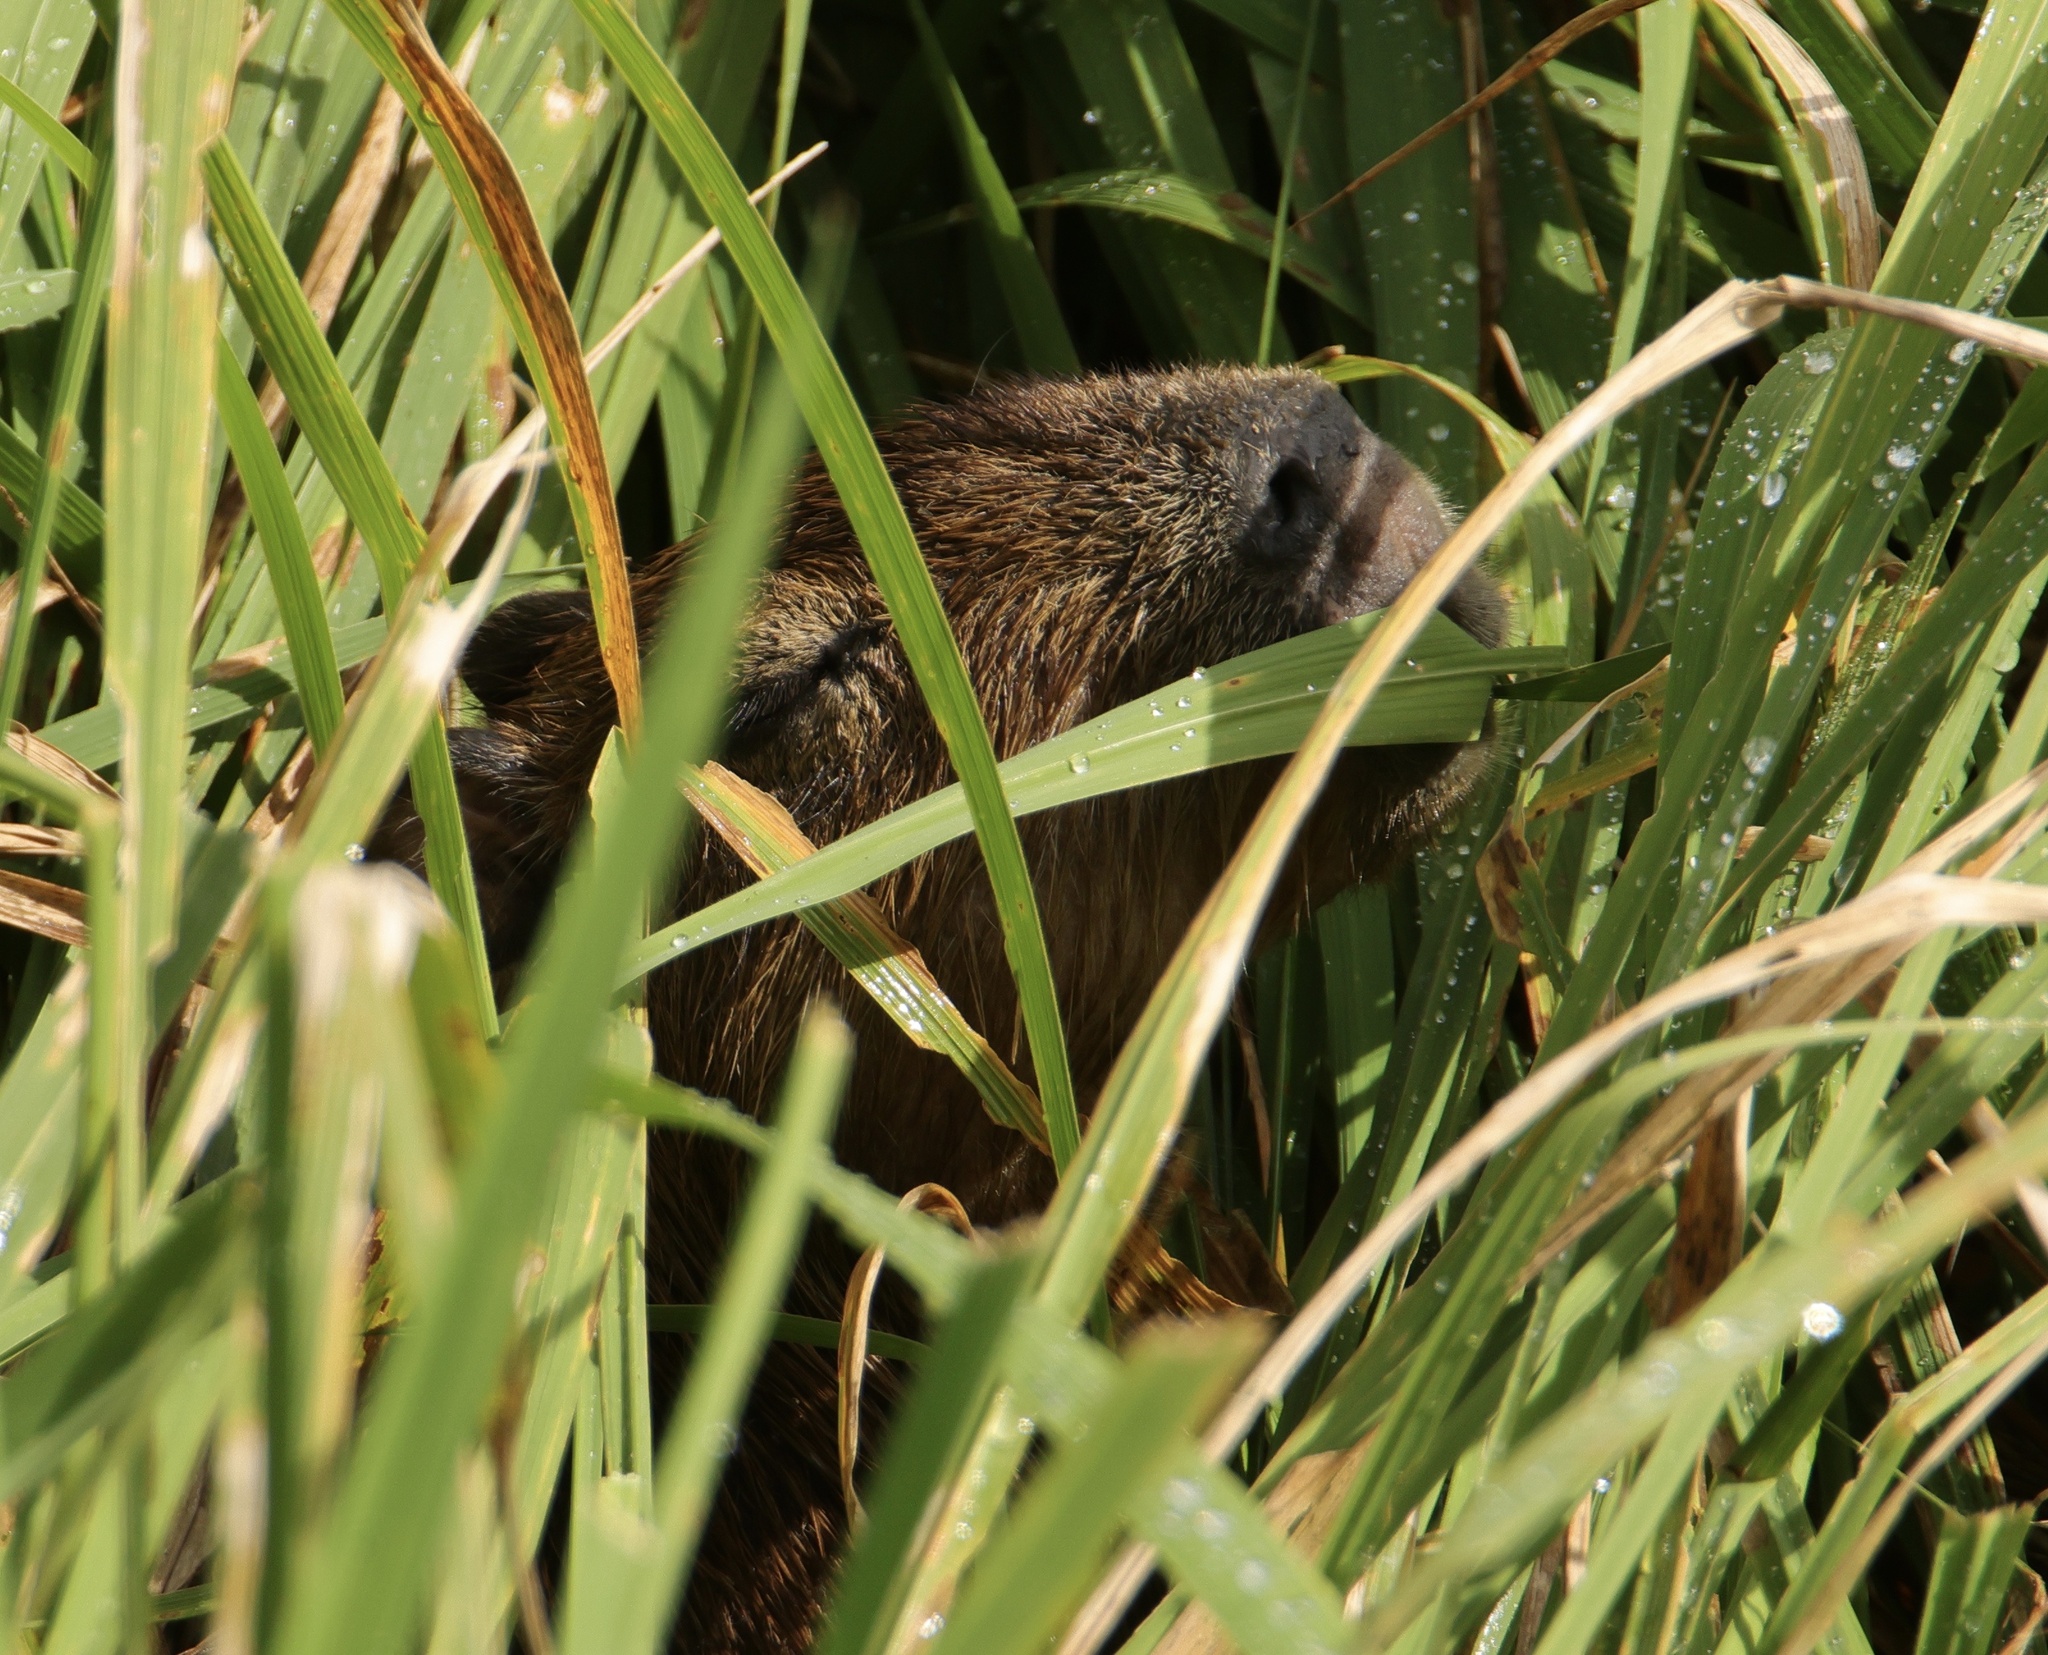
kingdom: Animalia
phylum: Chordata
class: Mammalia
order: Rodentia
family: Caviidae
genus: Hydrochoerus
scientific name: Hydrochoerus isthmius
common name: Lesser capybara
